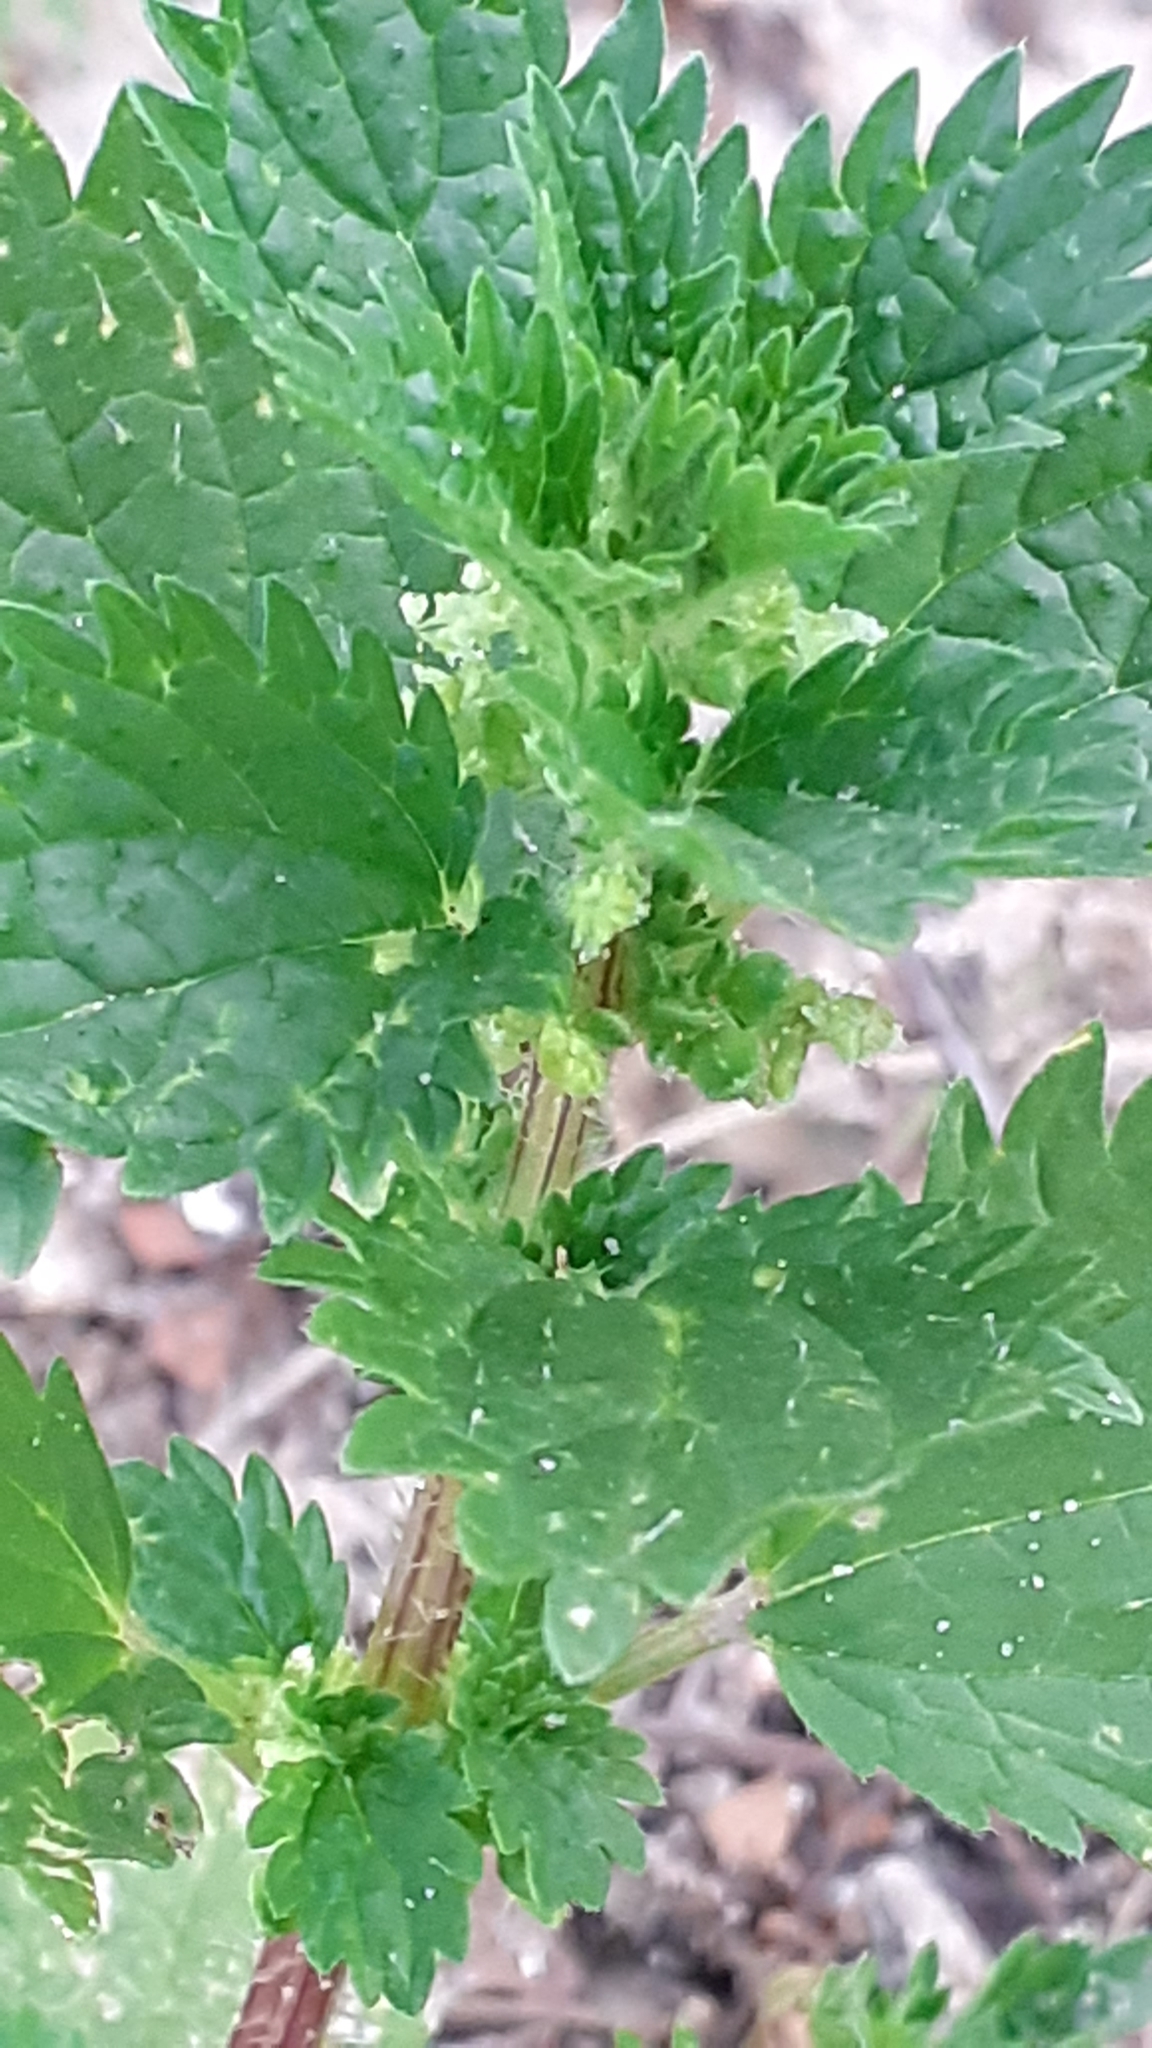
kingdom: Plantae
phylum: Tracheophyta
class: Magnoliopsida
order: Rosales
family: Urticaceae
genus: Urtica
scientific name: Urtica urens
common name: Dwarf nettle
